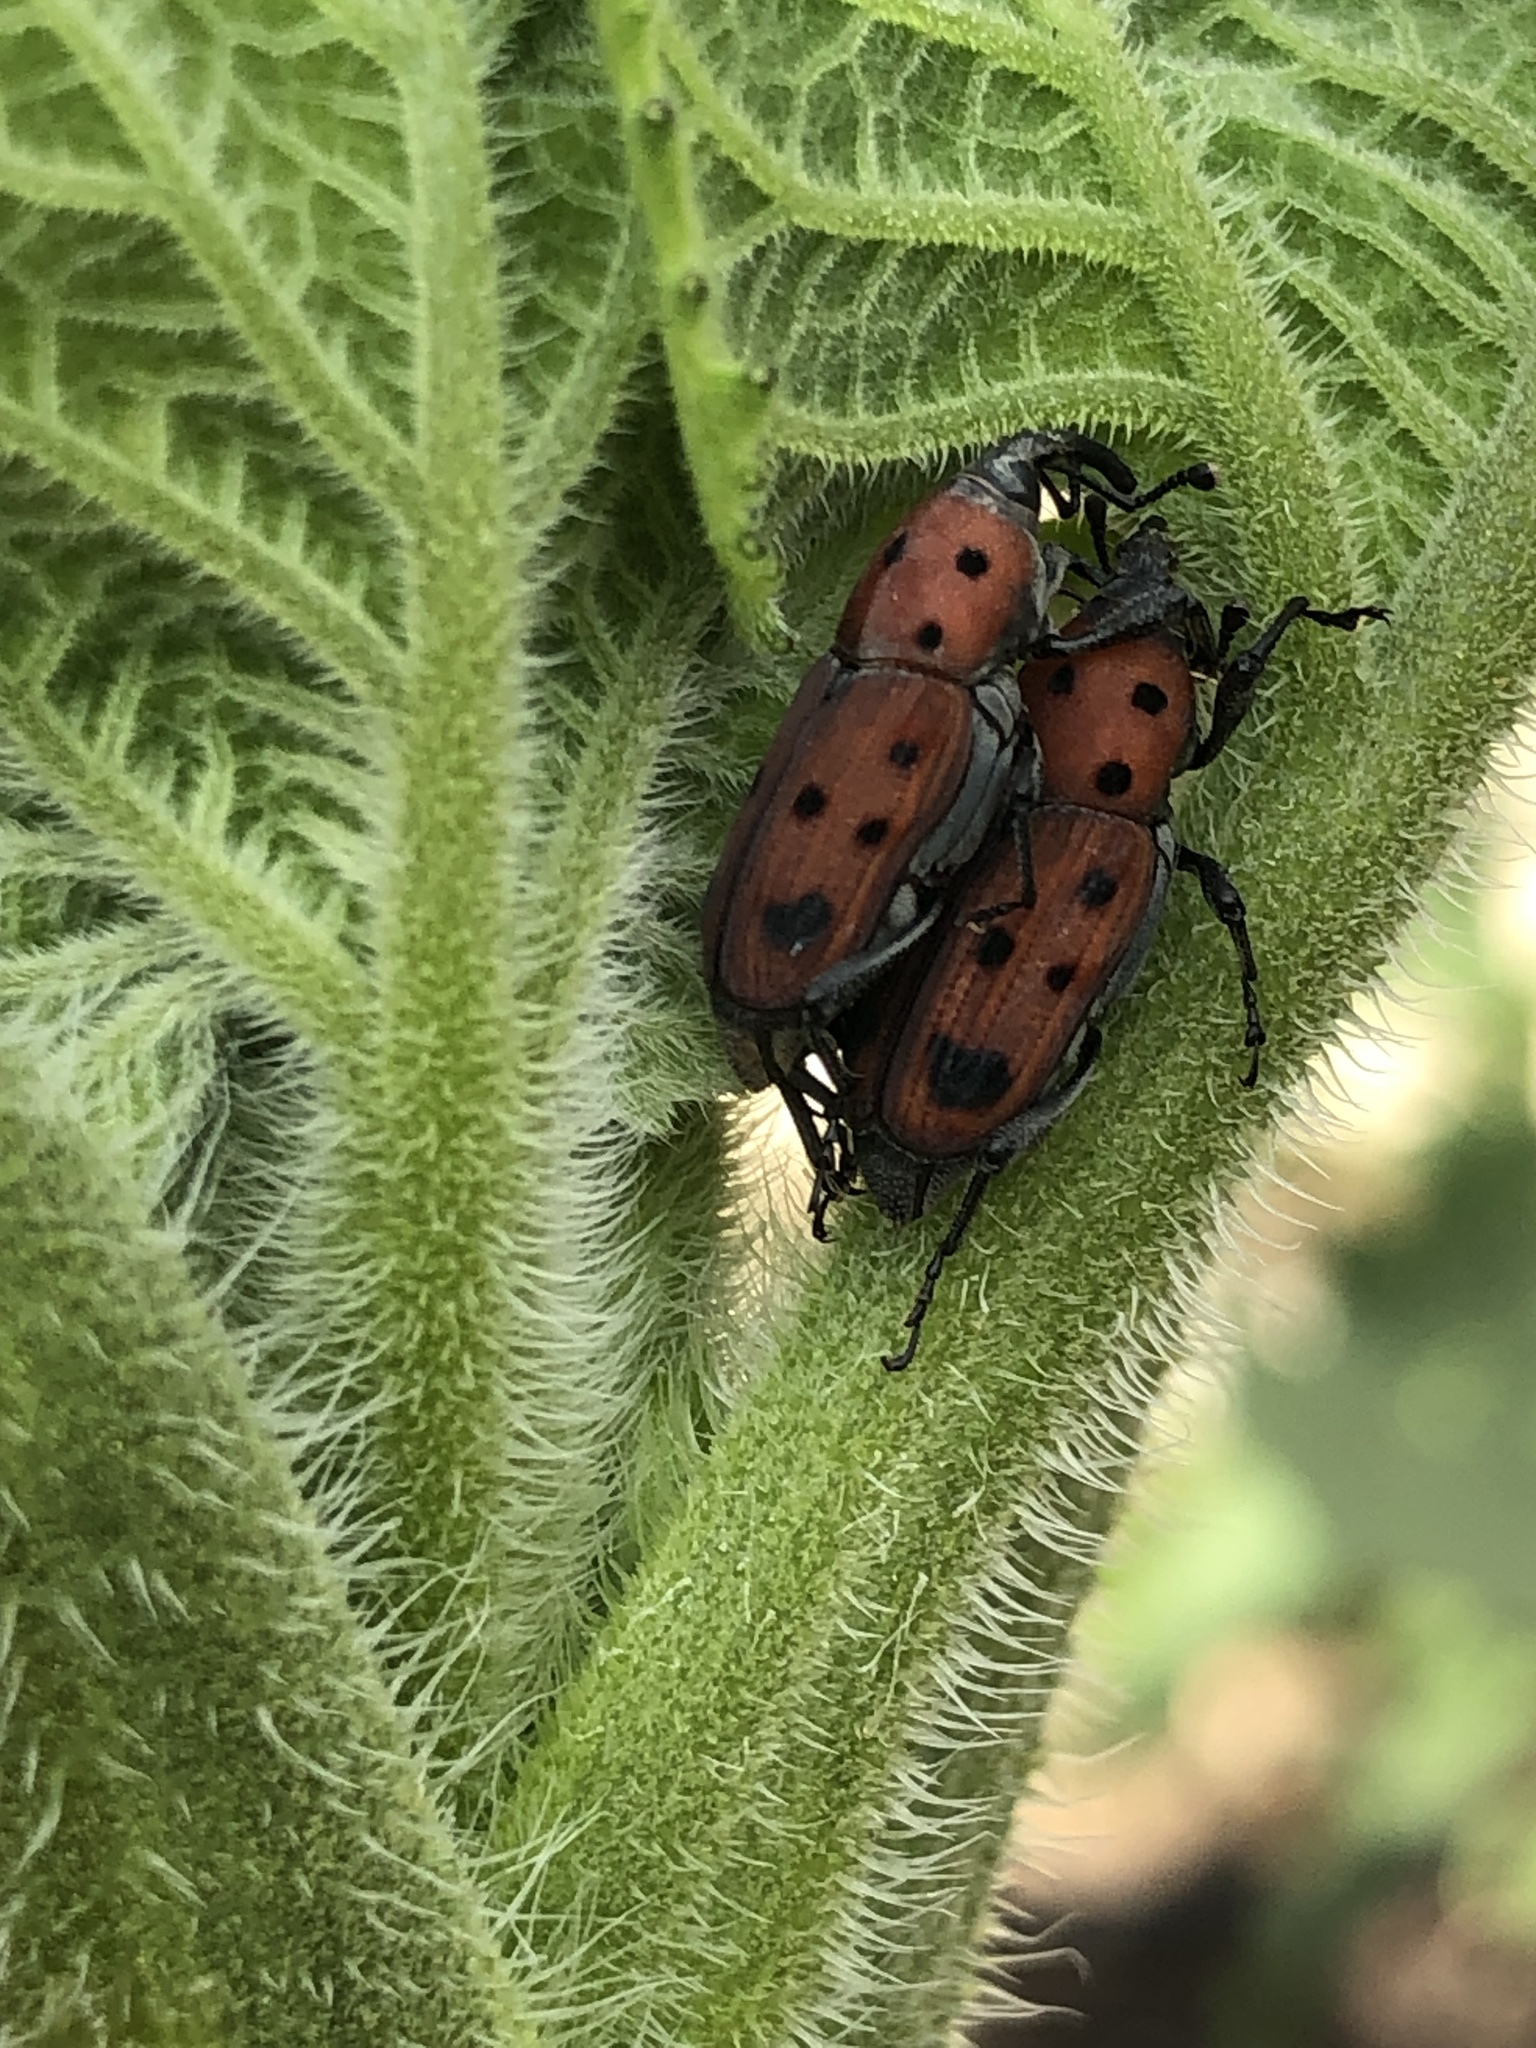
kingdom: Animalia
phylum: Arthropoda
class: Insecta
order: Coleoptera
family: Dryophthoridae
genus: Rhodobaenus
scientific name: Rhodobaenus tredecimpunctatus
